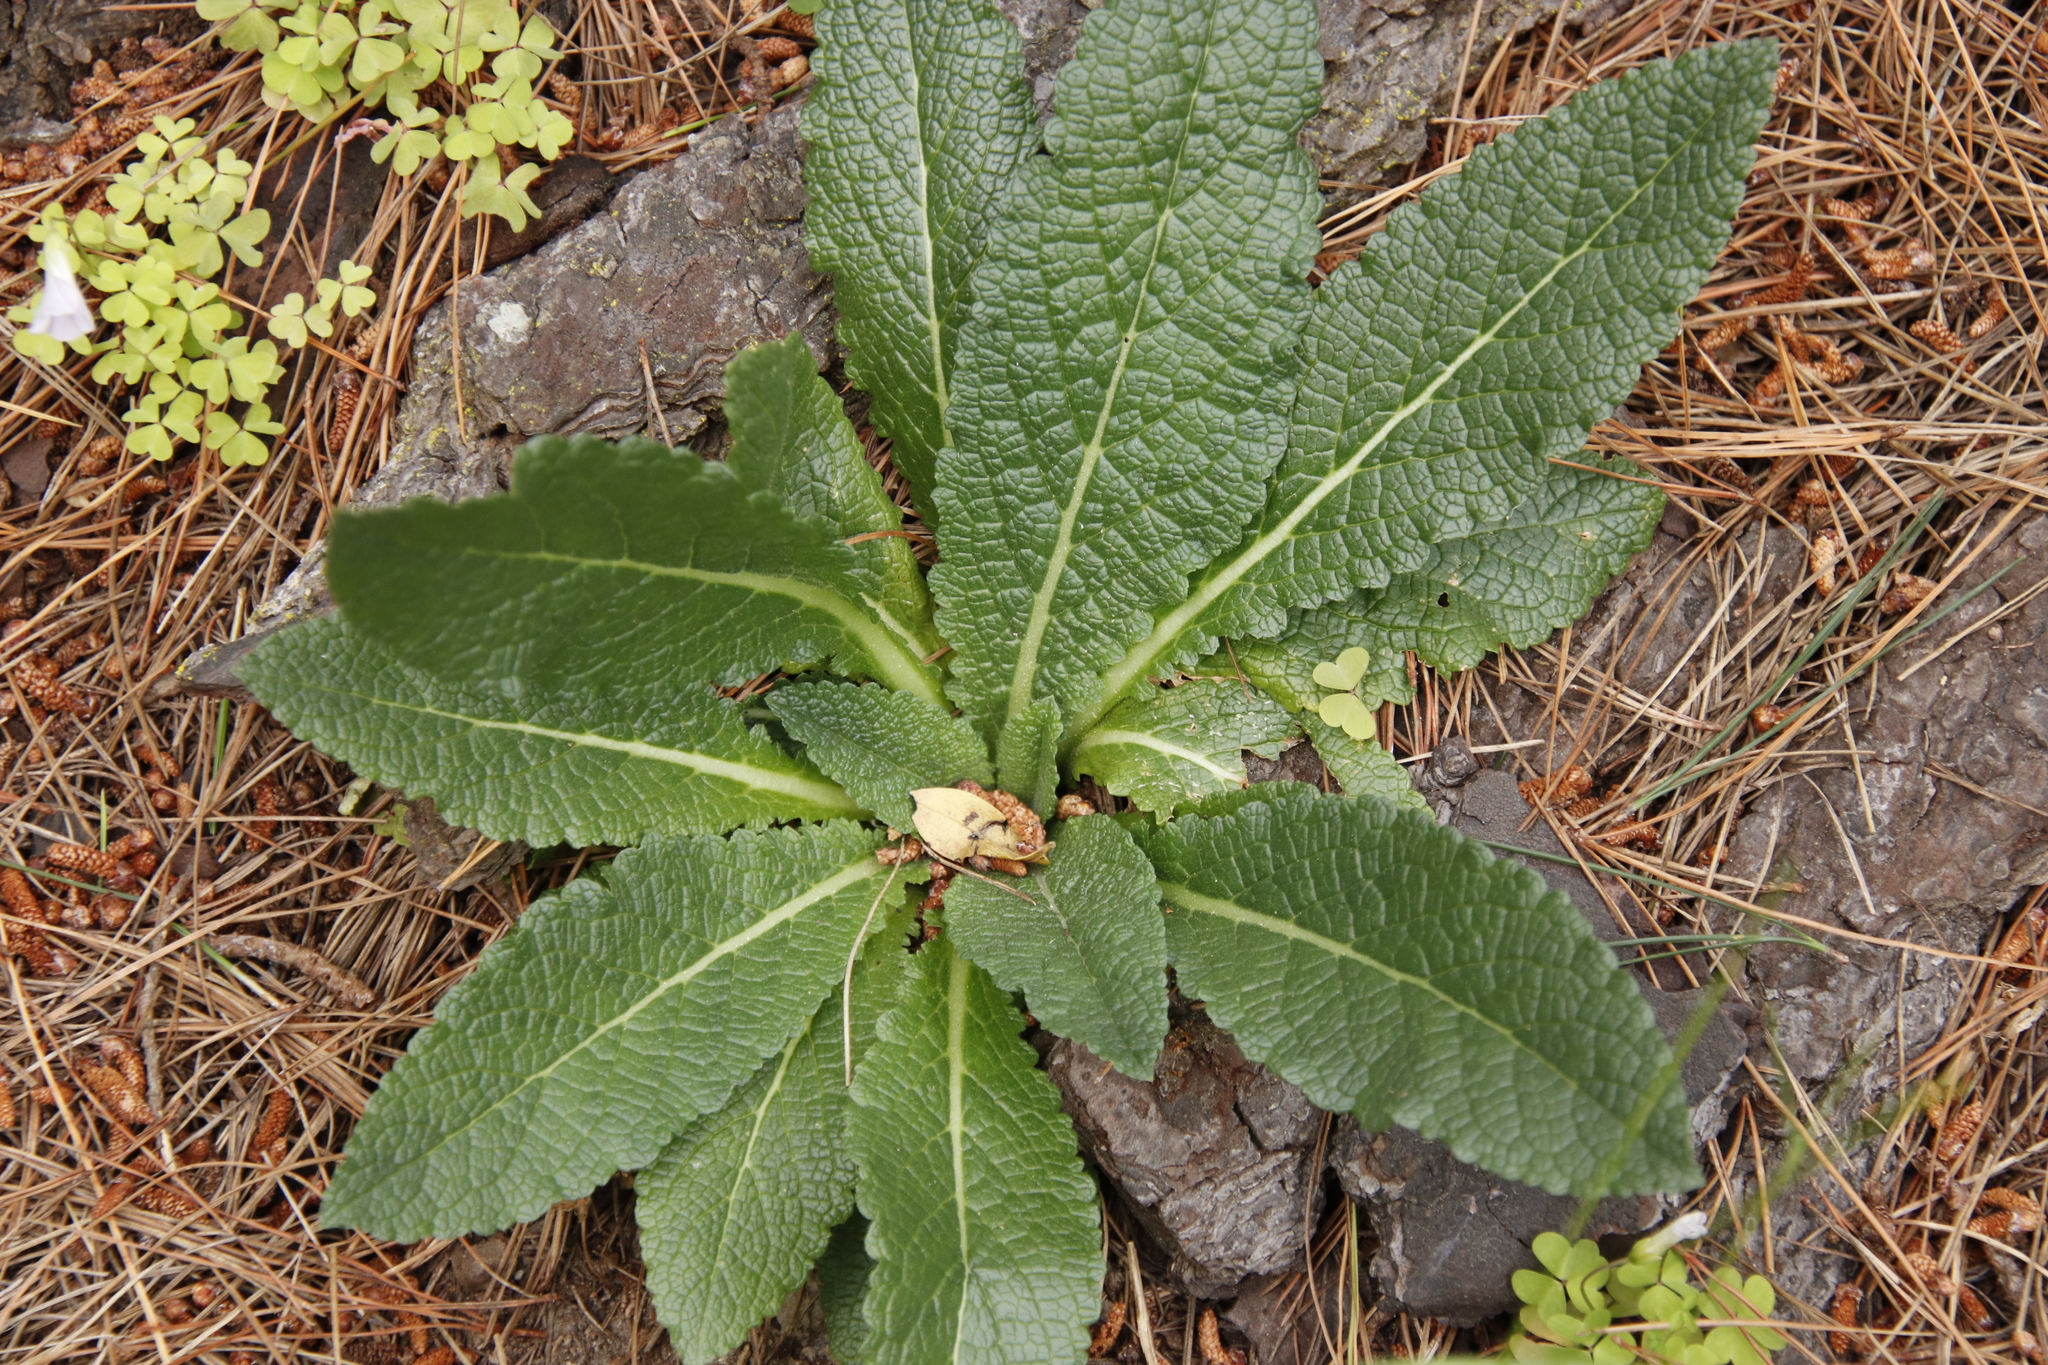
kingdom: Plantae
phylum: Tracheophyta
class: Magnoliopsida
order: Lamiales
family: Scrophulariaceae
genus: Verbascum
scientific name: Verbascum virgatum
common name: Twiggy mullein
